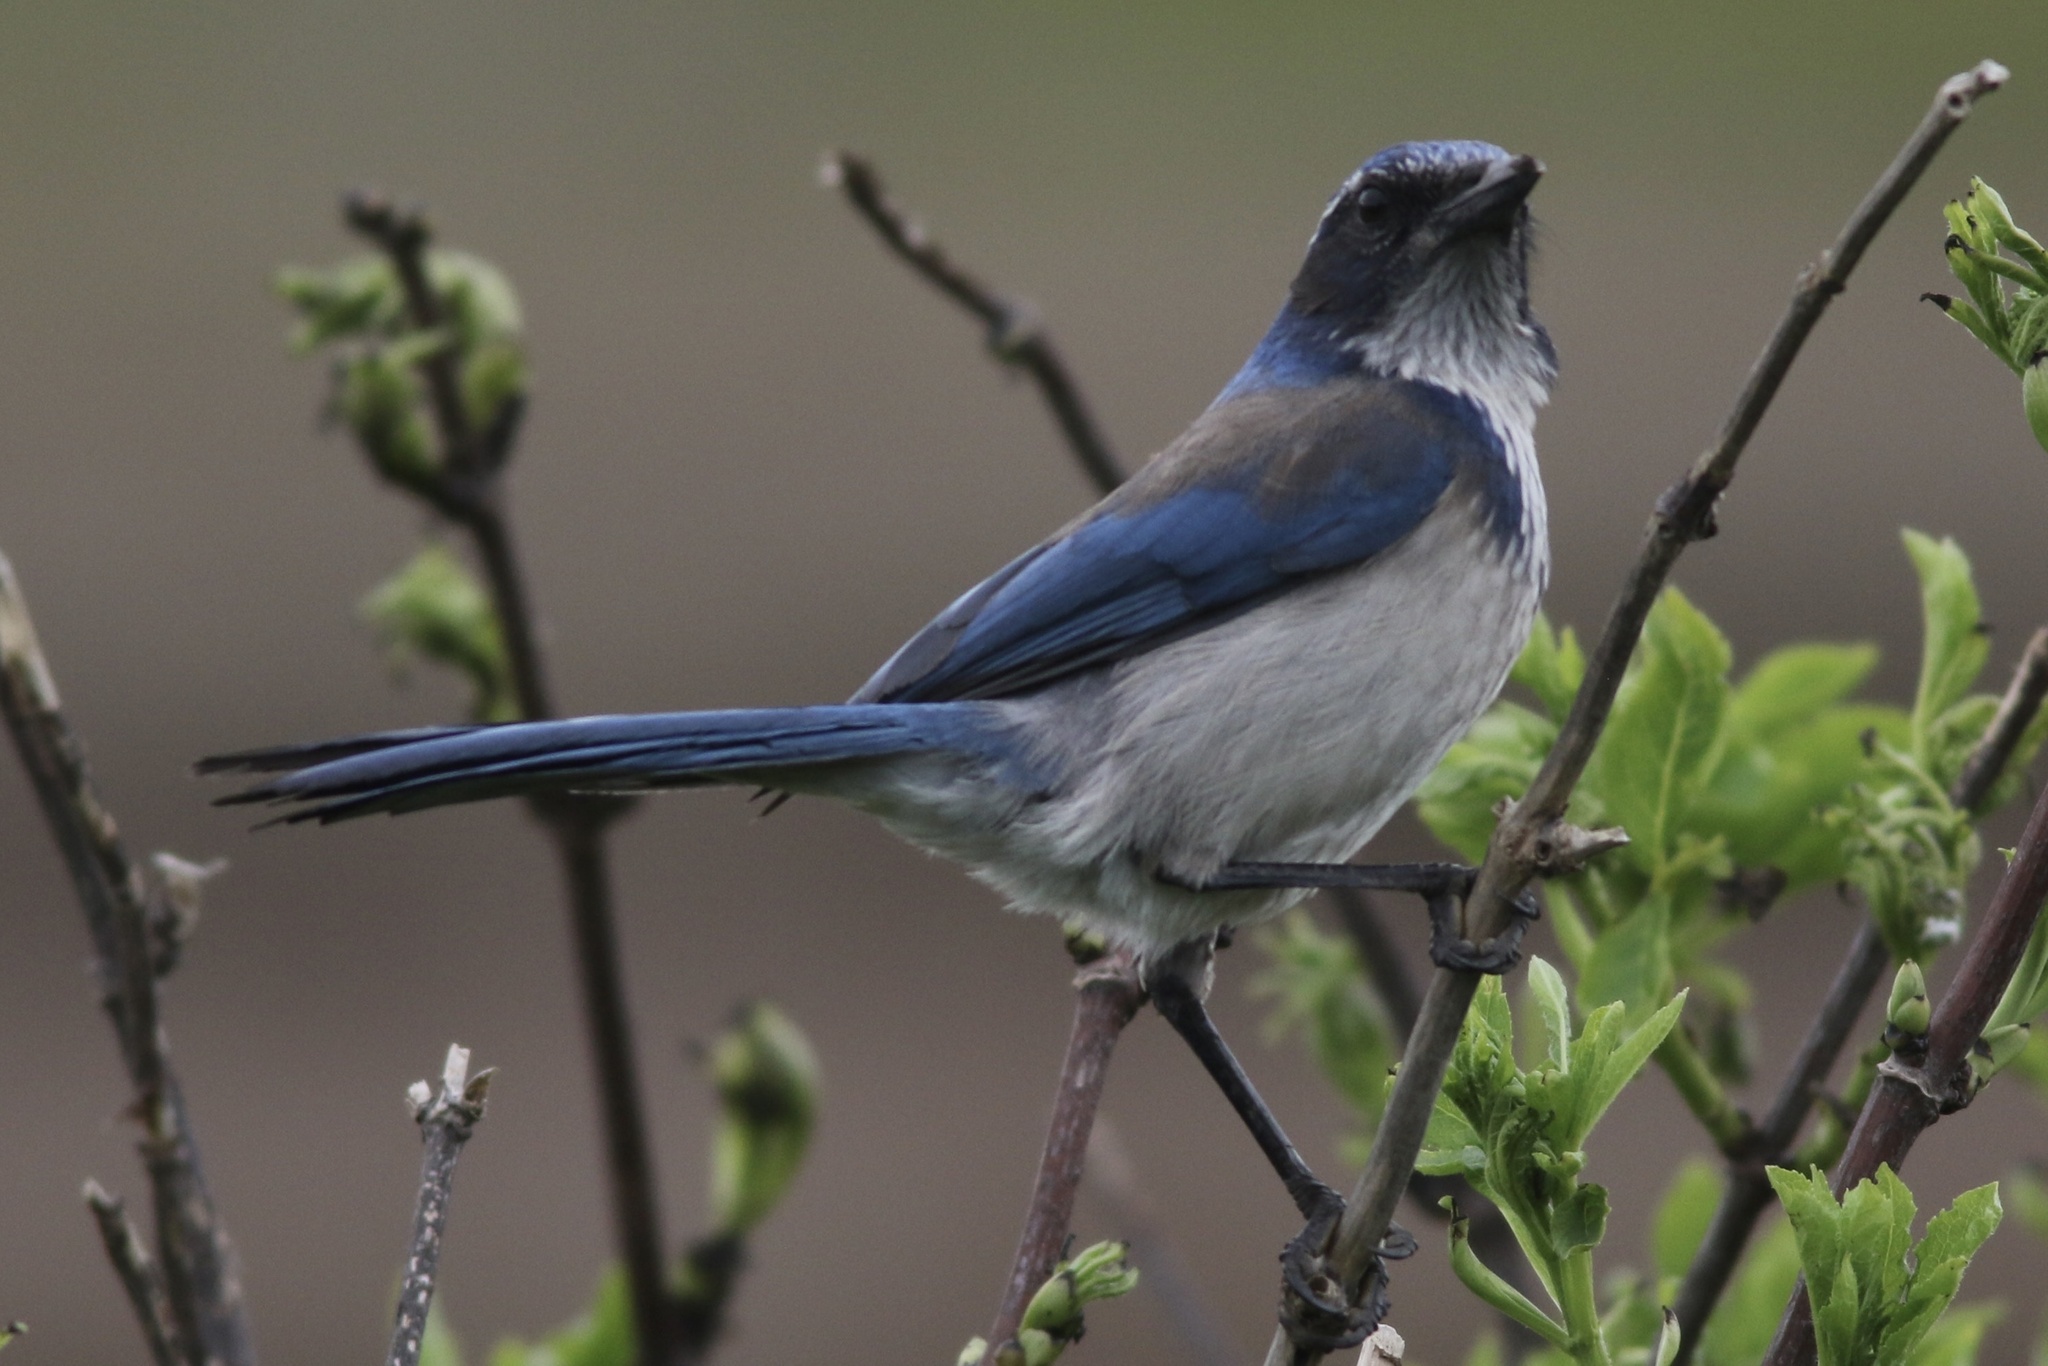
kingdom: Animalia
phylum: Chordata
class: Aves
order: Passeriformes
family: Corvidae
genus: Aphelocoma
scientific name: Aphelocoma californica
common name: California scrub-jay
